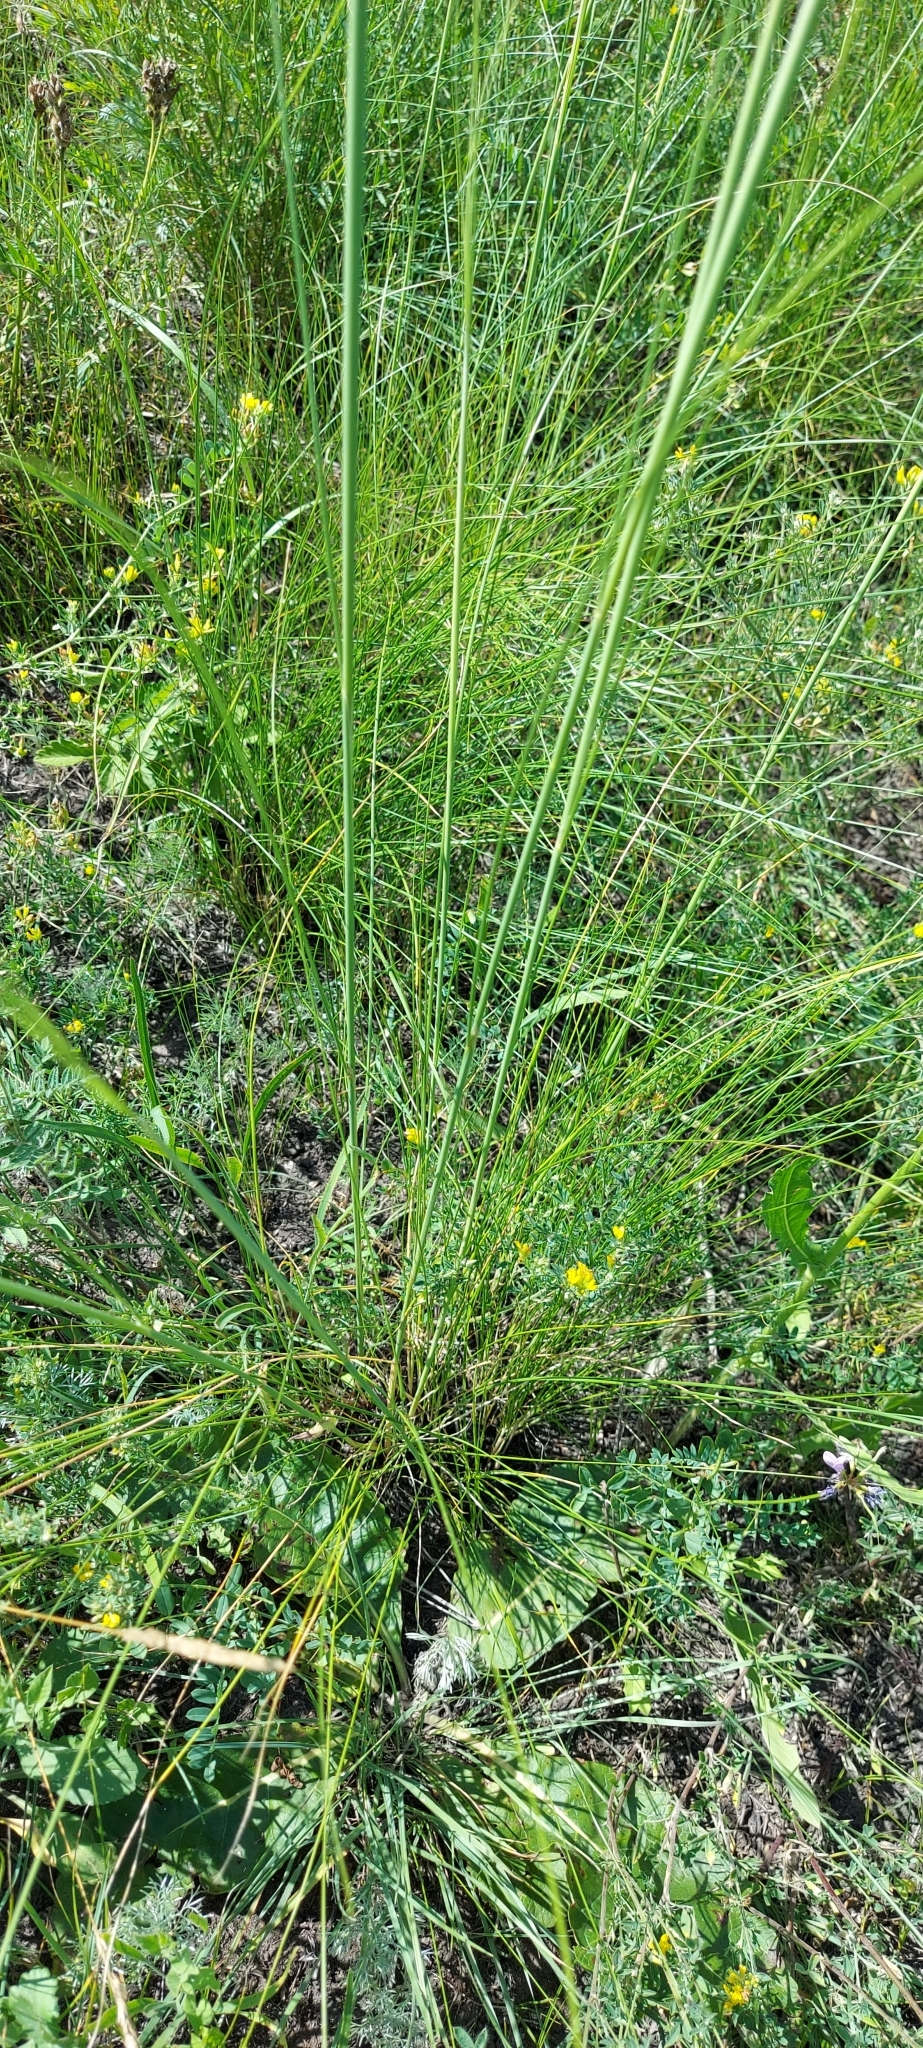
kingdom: Plantae
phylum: Tracheophyta
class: Liliopsida
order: Poales
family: Poaceae
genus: Stipa
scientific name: Stipa capillata
